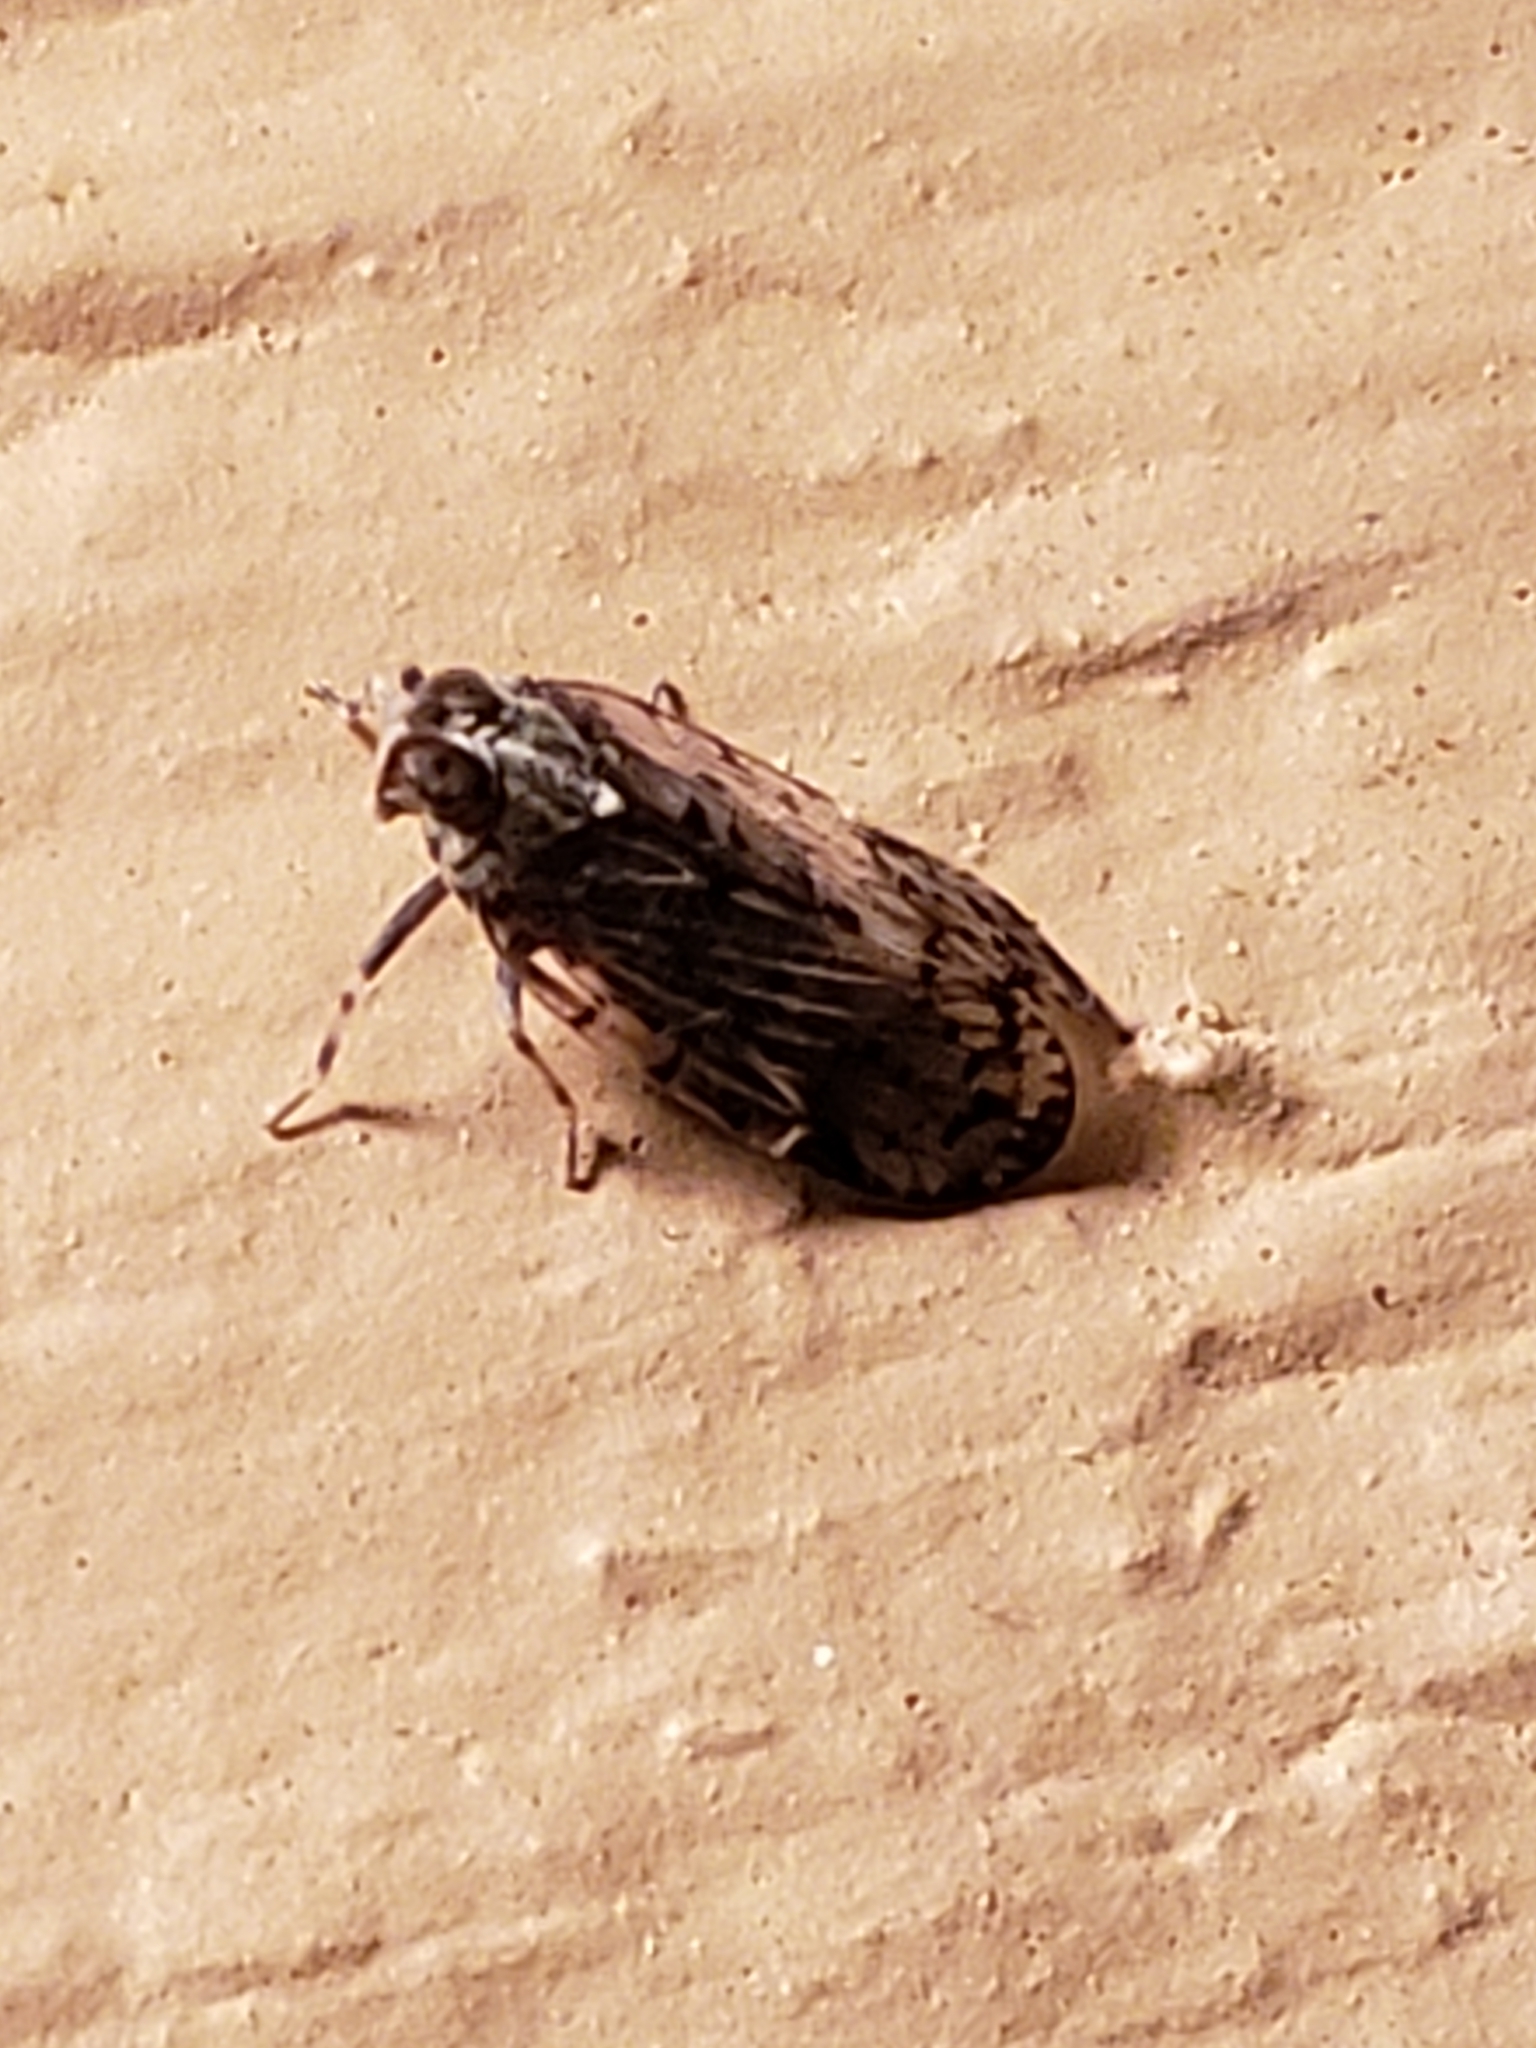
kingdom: Animalia
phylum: Arthropoda
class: Insecta
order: Hemiptera
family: Cixiidae
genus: Melanoliarus
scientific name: Melanoliarus placitus
